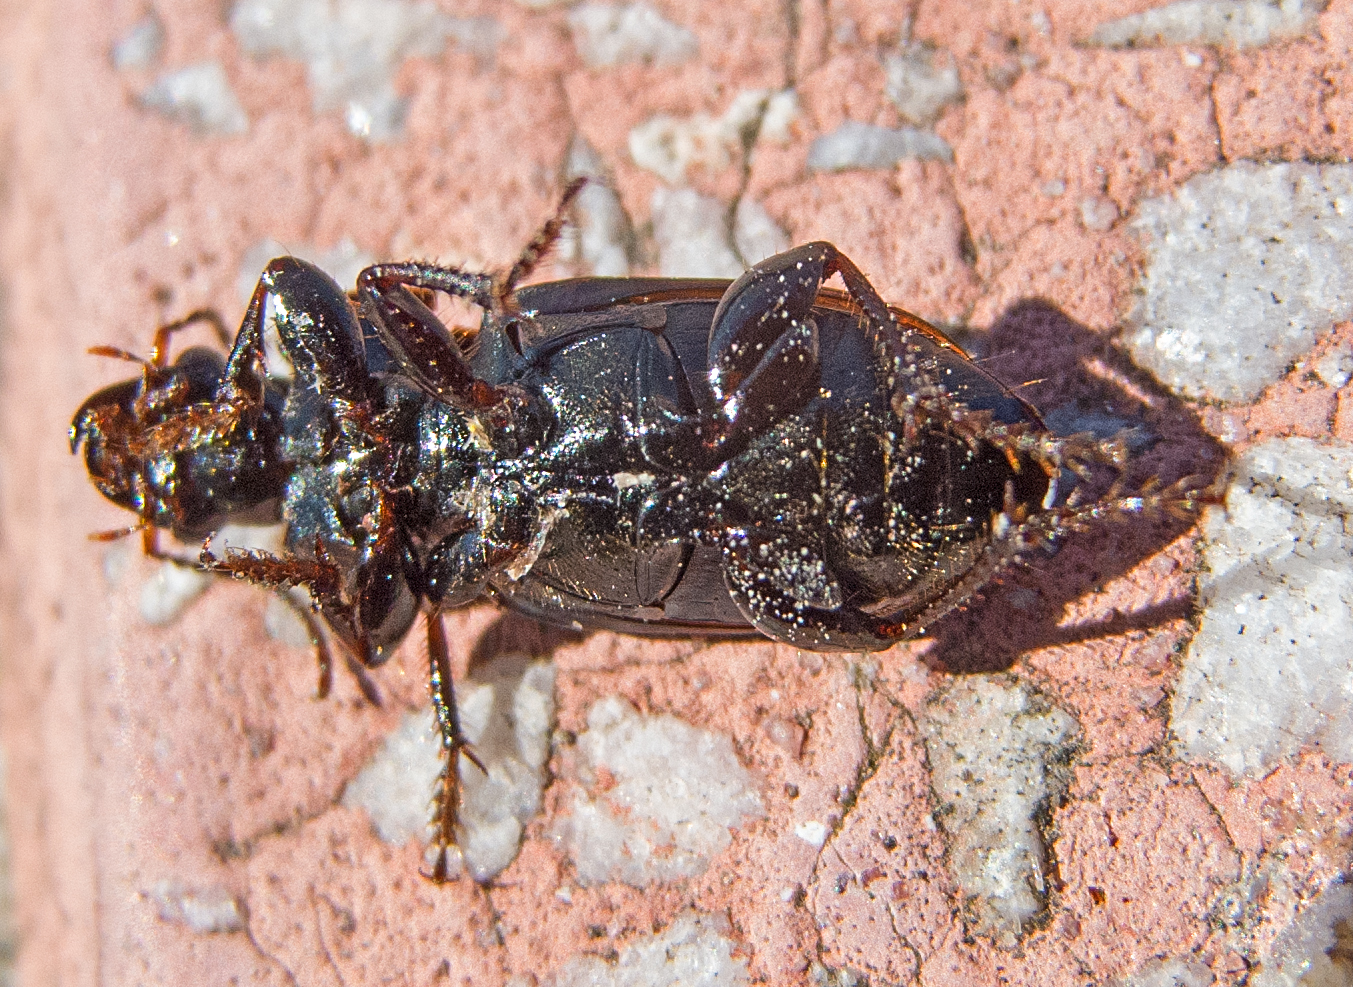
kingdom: Animalia
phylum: Arthropoda
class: Insecta
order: Coleoptera
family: Carabidae
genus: Harpalus
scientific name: Harpalus distinguendus
